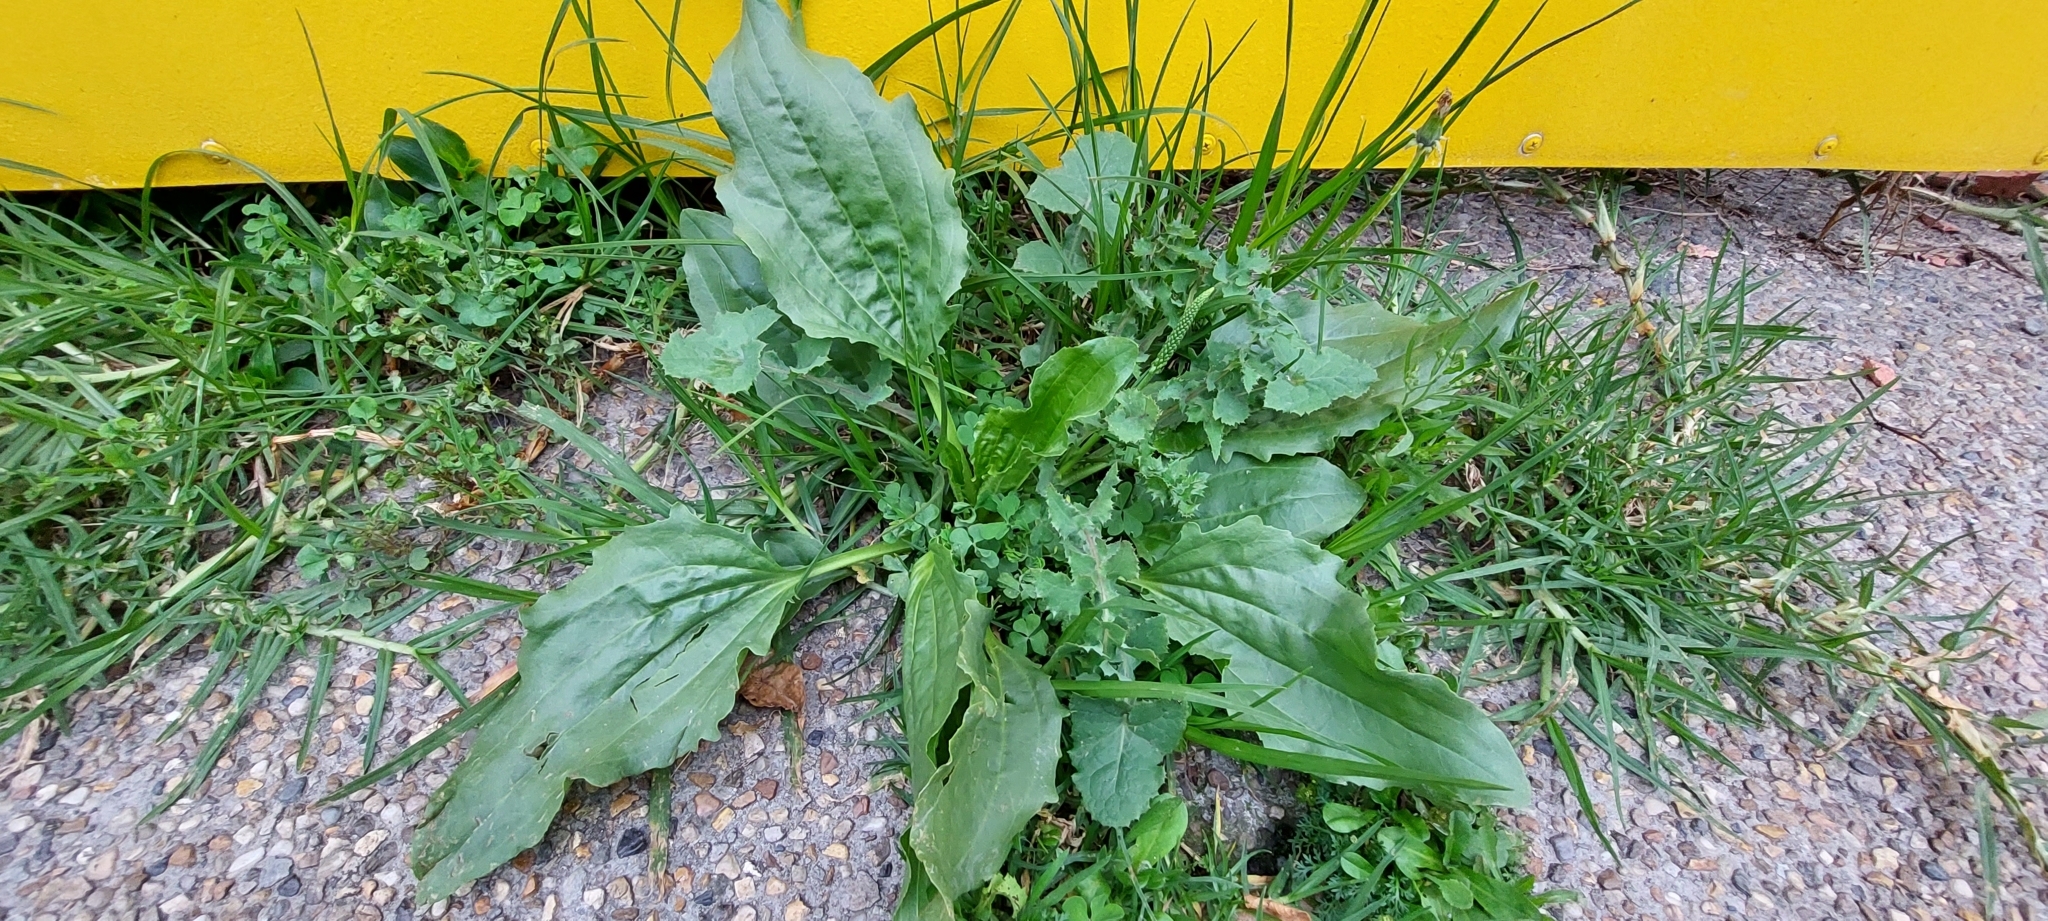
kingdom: Plantae
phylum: Tracheophyta
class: Magnoliopsida
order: Lamiales
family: Plantaginaceae
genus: Plantago
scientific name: Plantago major
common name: Common plantain
